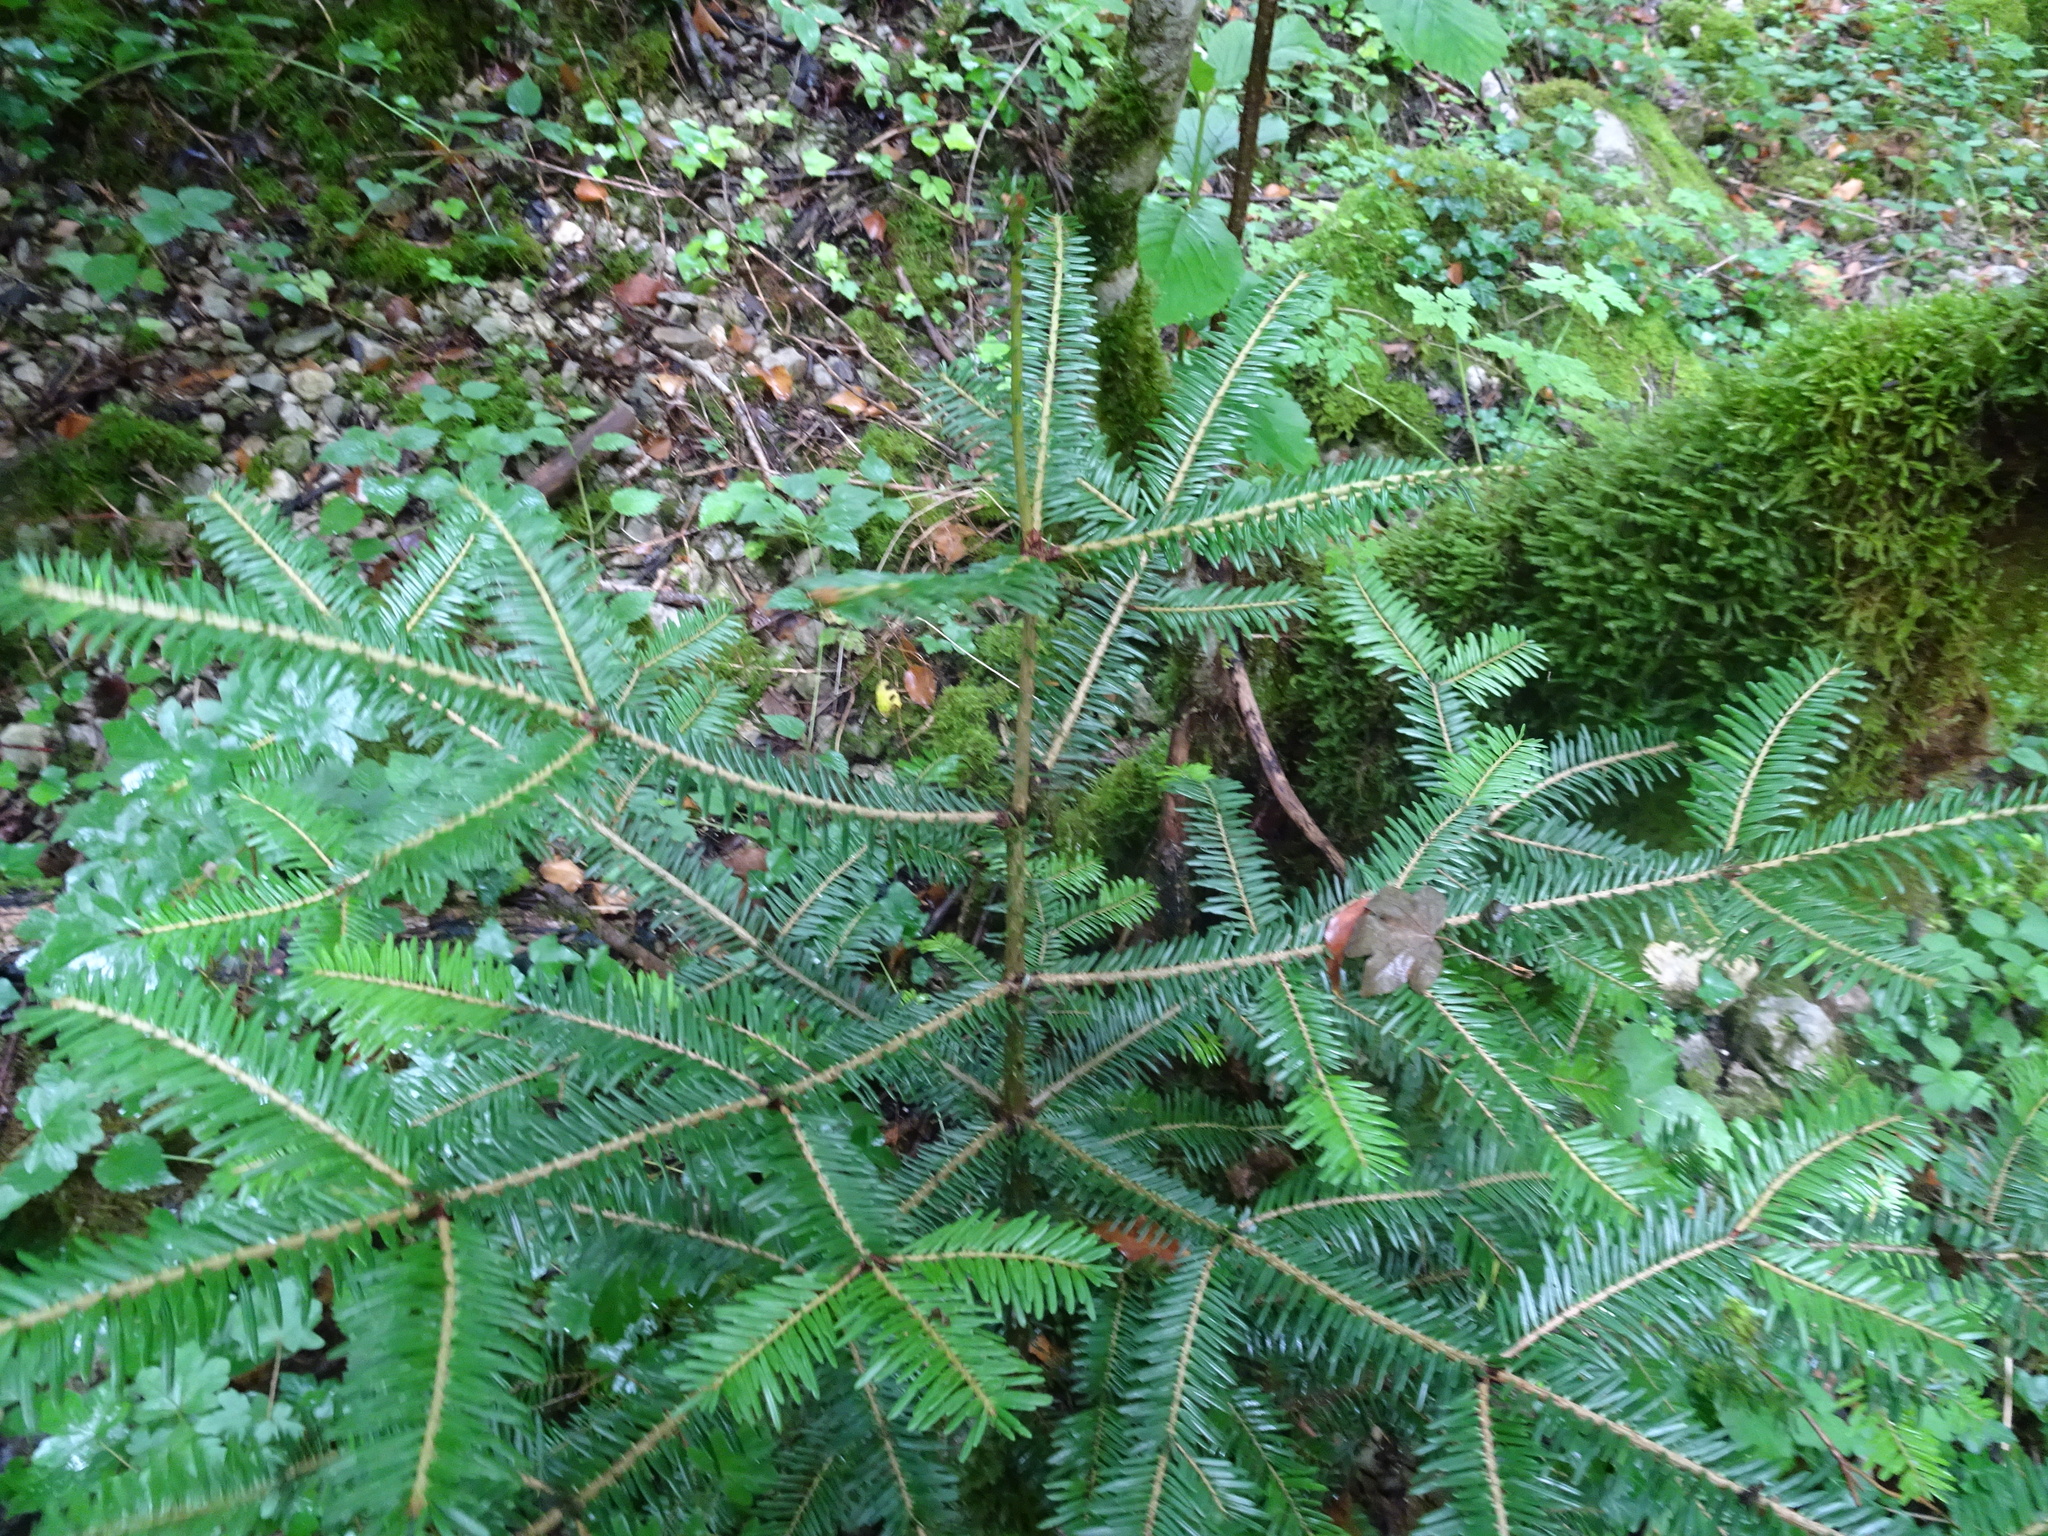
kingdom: Plantae
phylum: Tracheophyta
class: Pinopsida
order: Pinales
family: Pinaceae
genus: Abies
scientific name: Abies alba
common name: Silver fir
